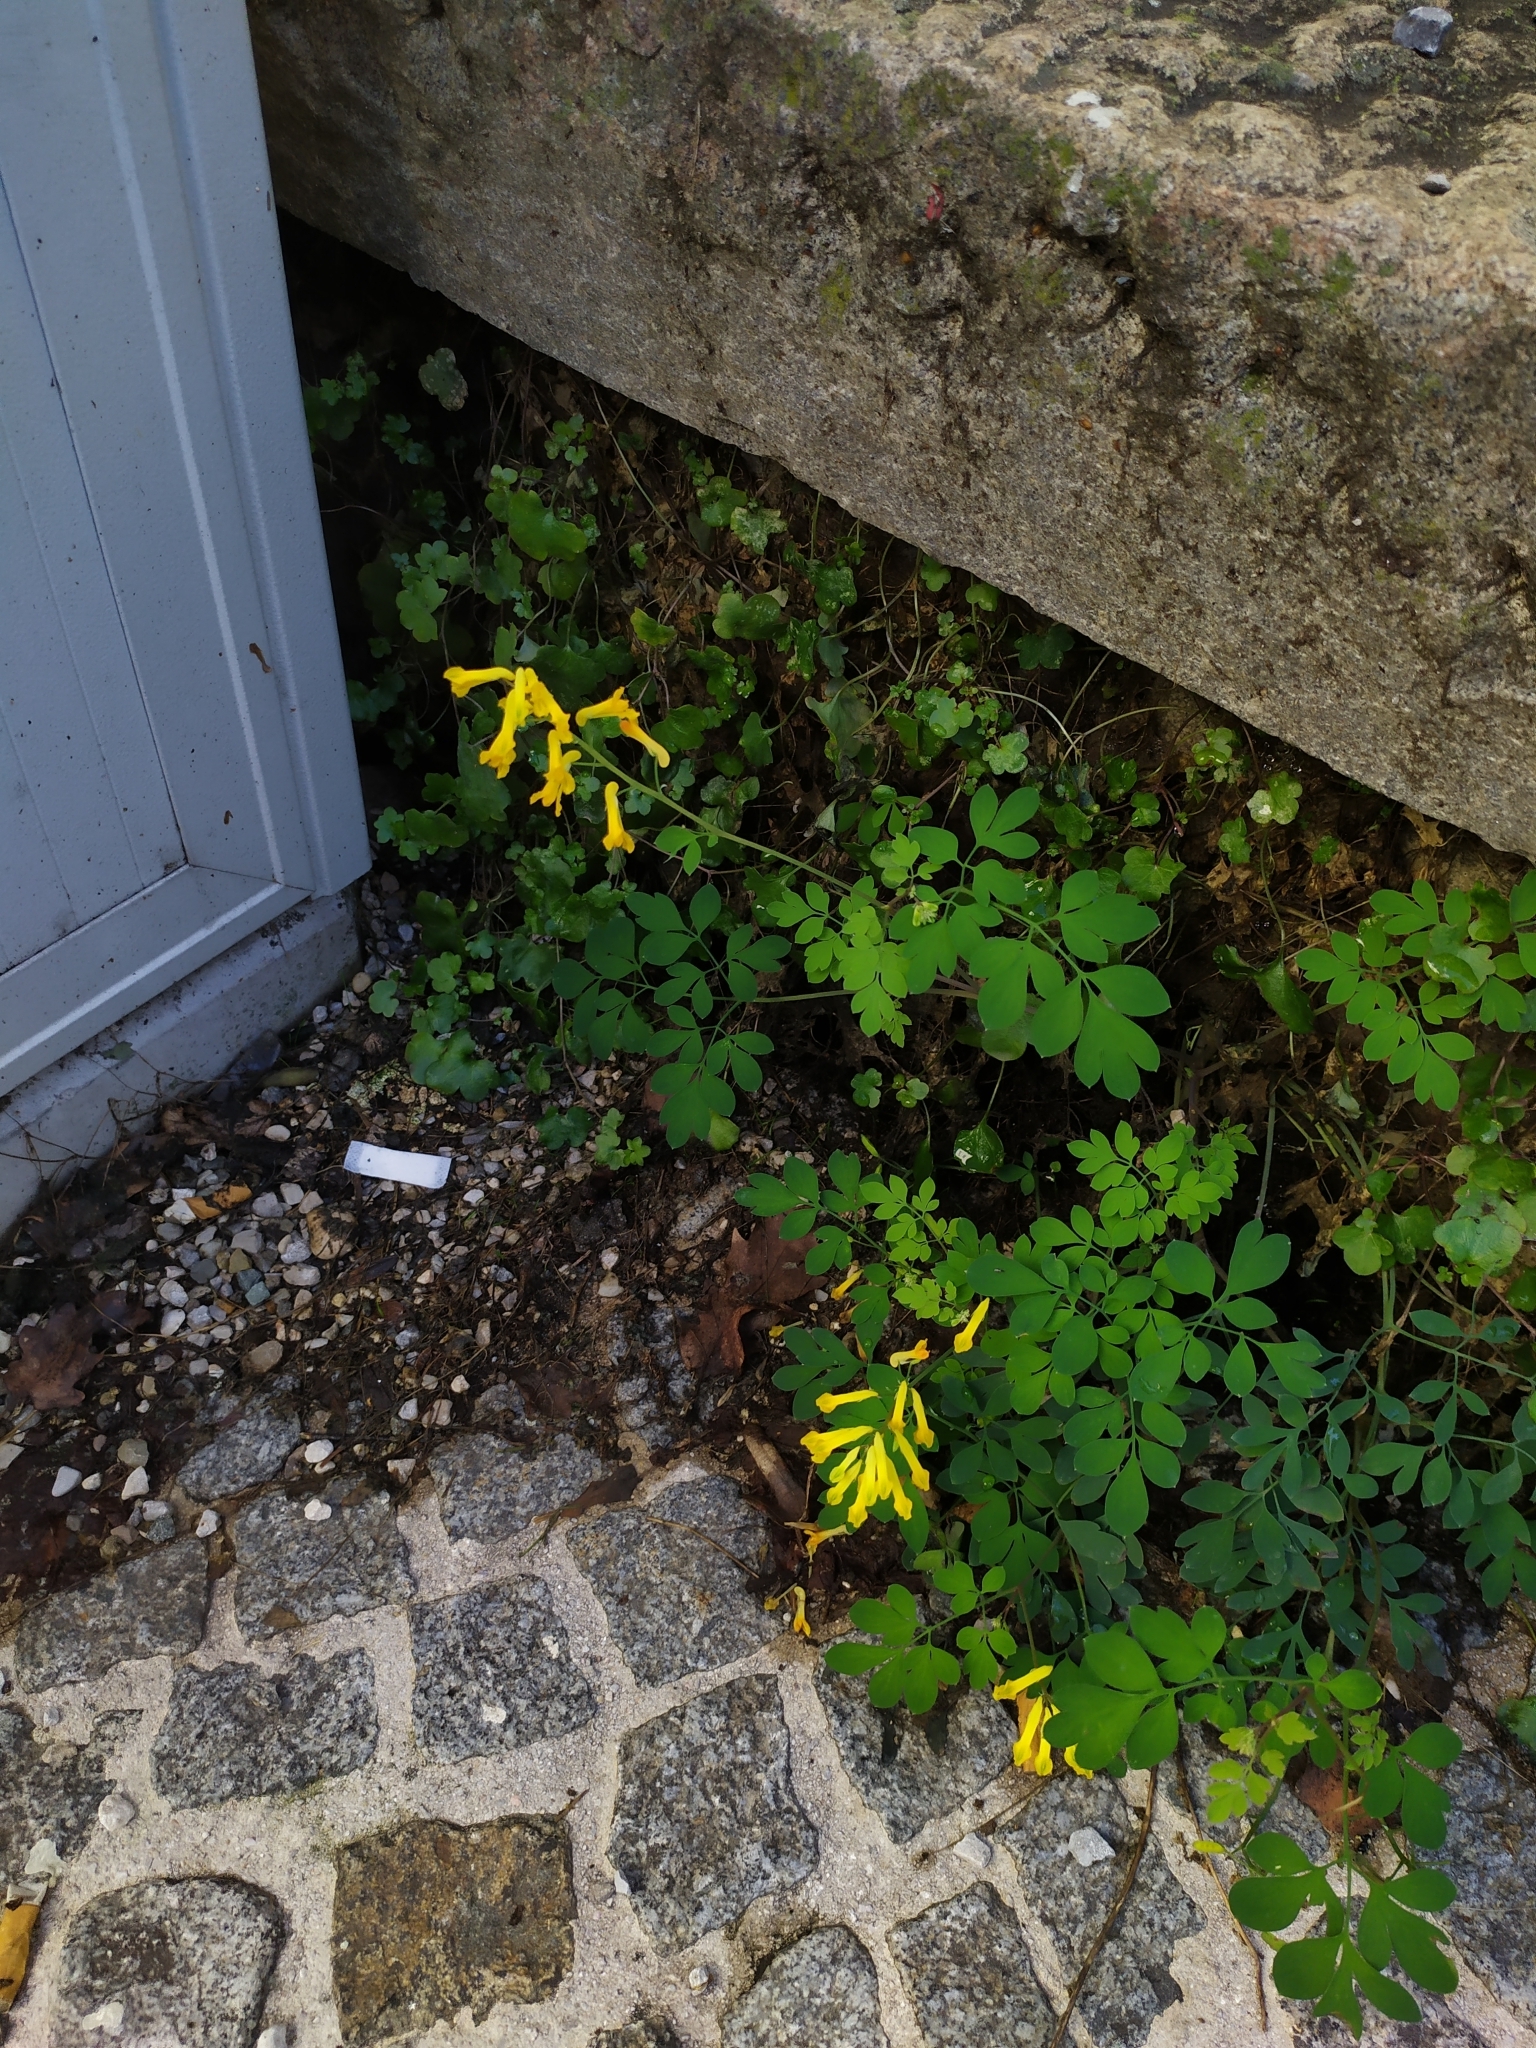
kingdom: Plantae
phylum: Tracheophyta
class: Magnoliopsida
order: Ranunculales
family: Papaveraceae
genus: Pseudofumaria
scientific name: Pseudofumaria lutea
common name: Yellow corydalis
